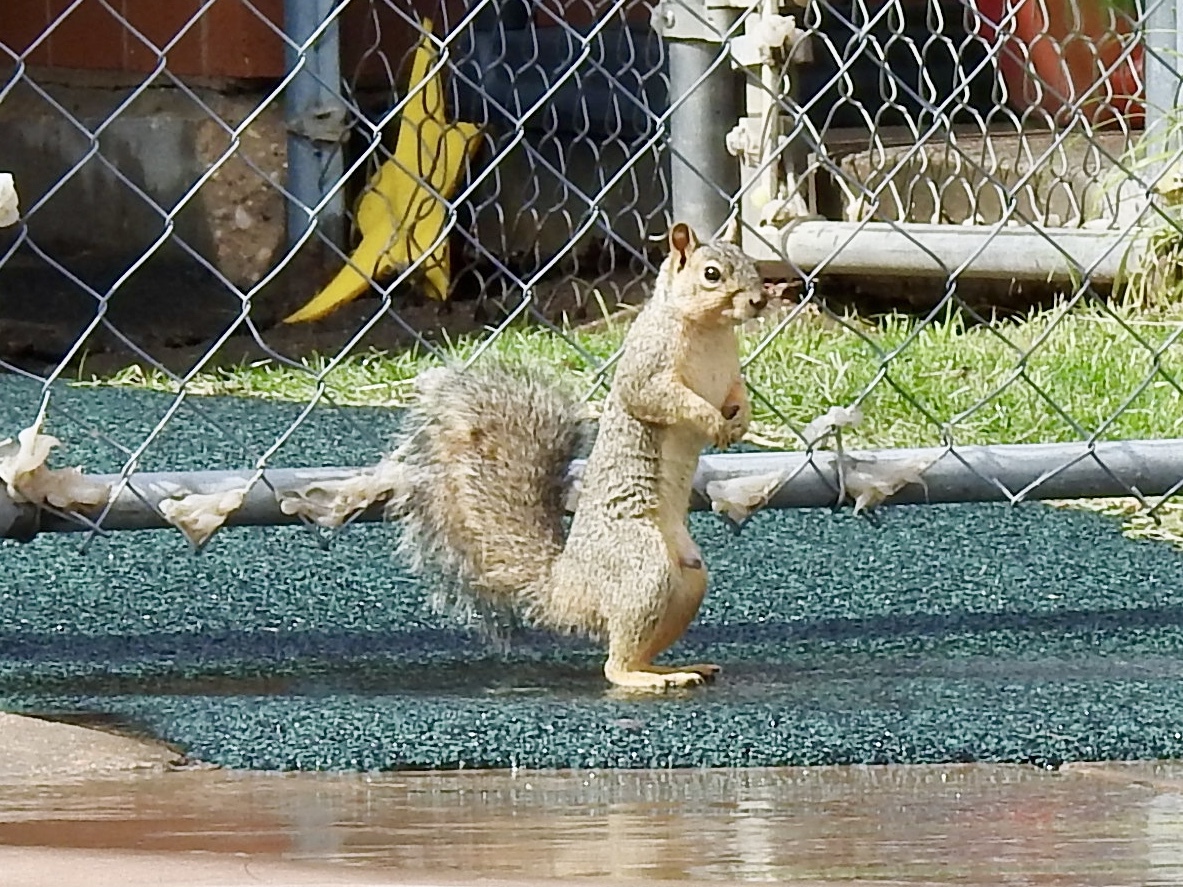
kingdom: Animalia
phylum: Chordata
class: Mammalia
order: Rodentia
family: Sciuridae
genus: Sciurus
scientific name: Sciurus niger
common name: Fox squirrel
